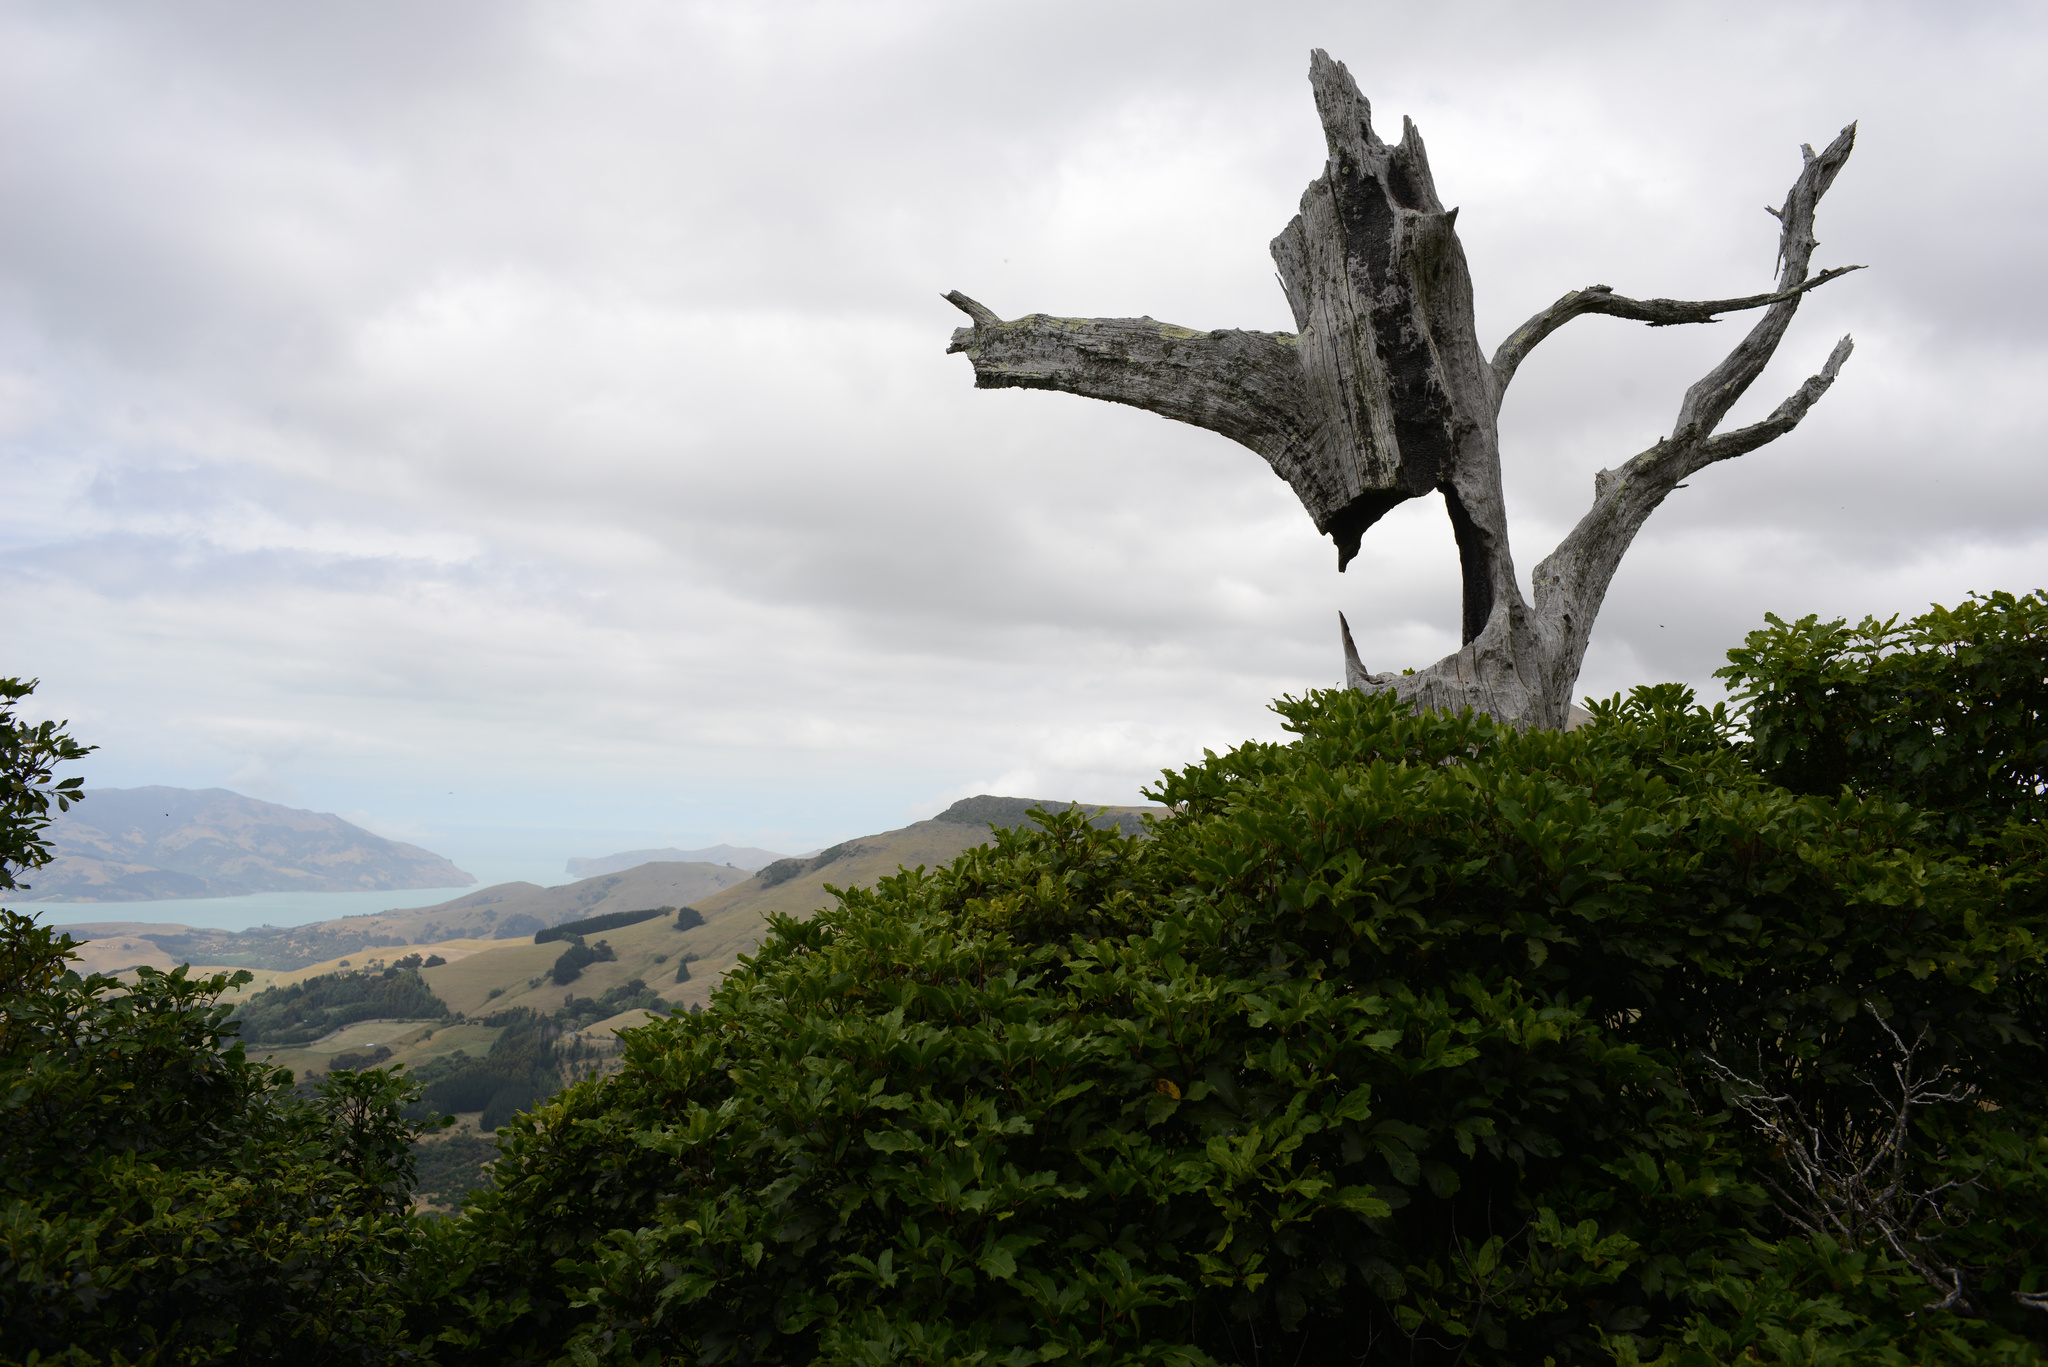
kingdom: Plantae
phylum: Tracheophyta
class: Magnoliopsida
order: Apiales
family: Araliaceae
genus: Neopanax
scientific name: Neopanax arboreus
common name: Five-fingers
